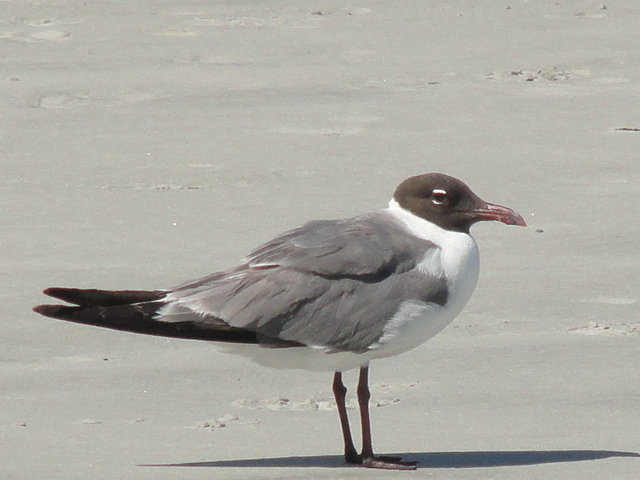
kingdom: Animalia
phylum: Chordata
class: Aves
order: Charadriiformes
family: Laridae
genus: Leucophaeus
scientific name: Leucophaeus atricilla
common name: Laughing gull
